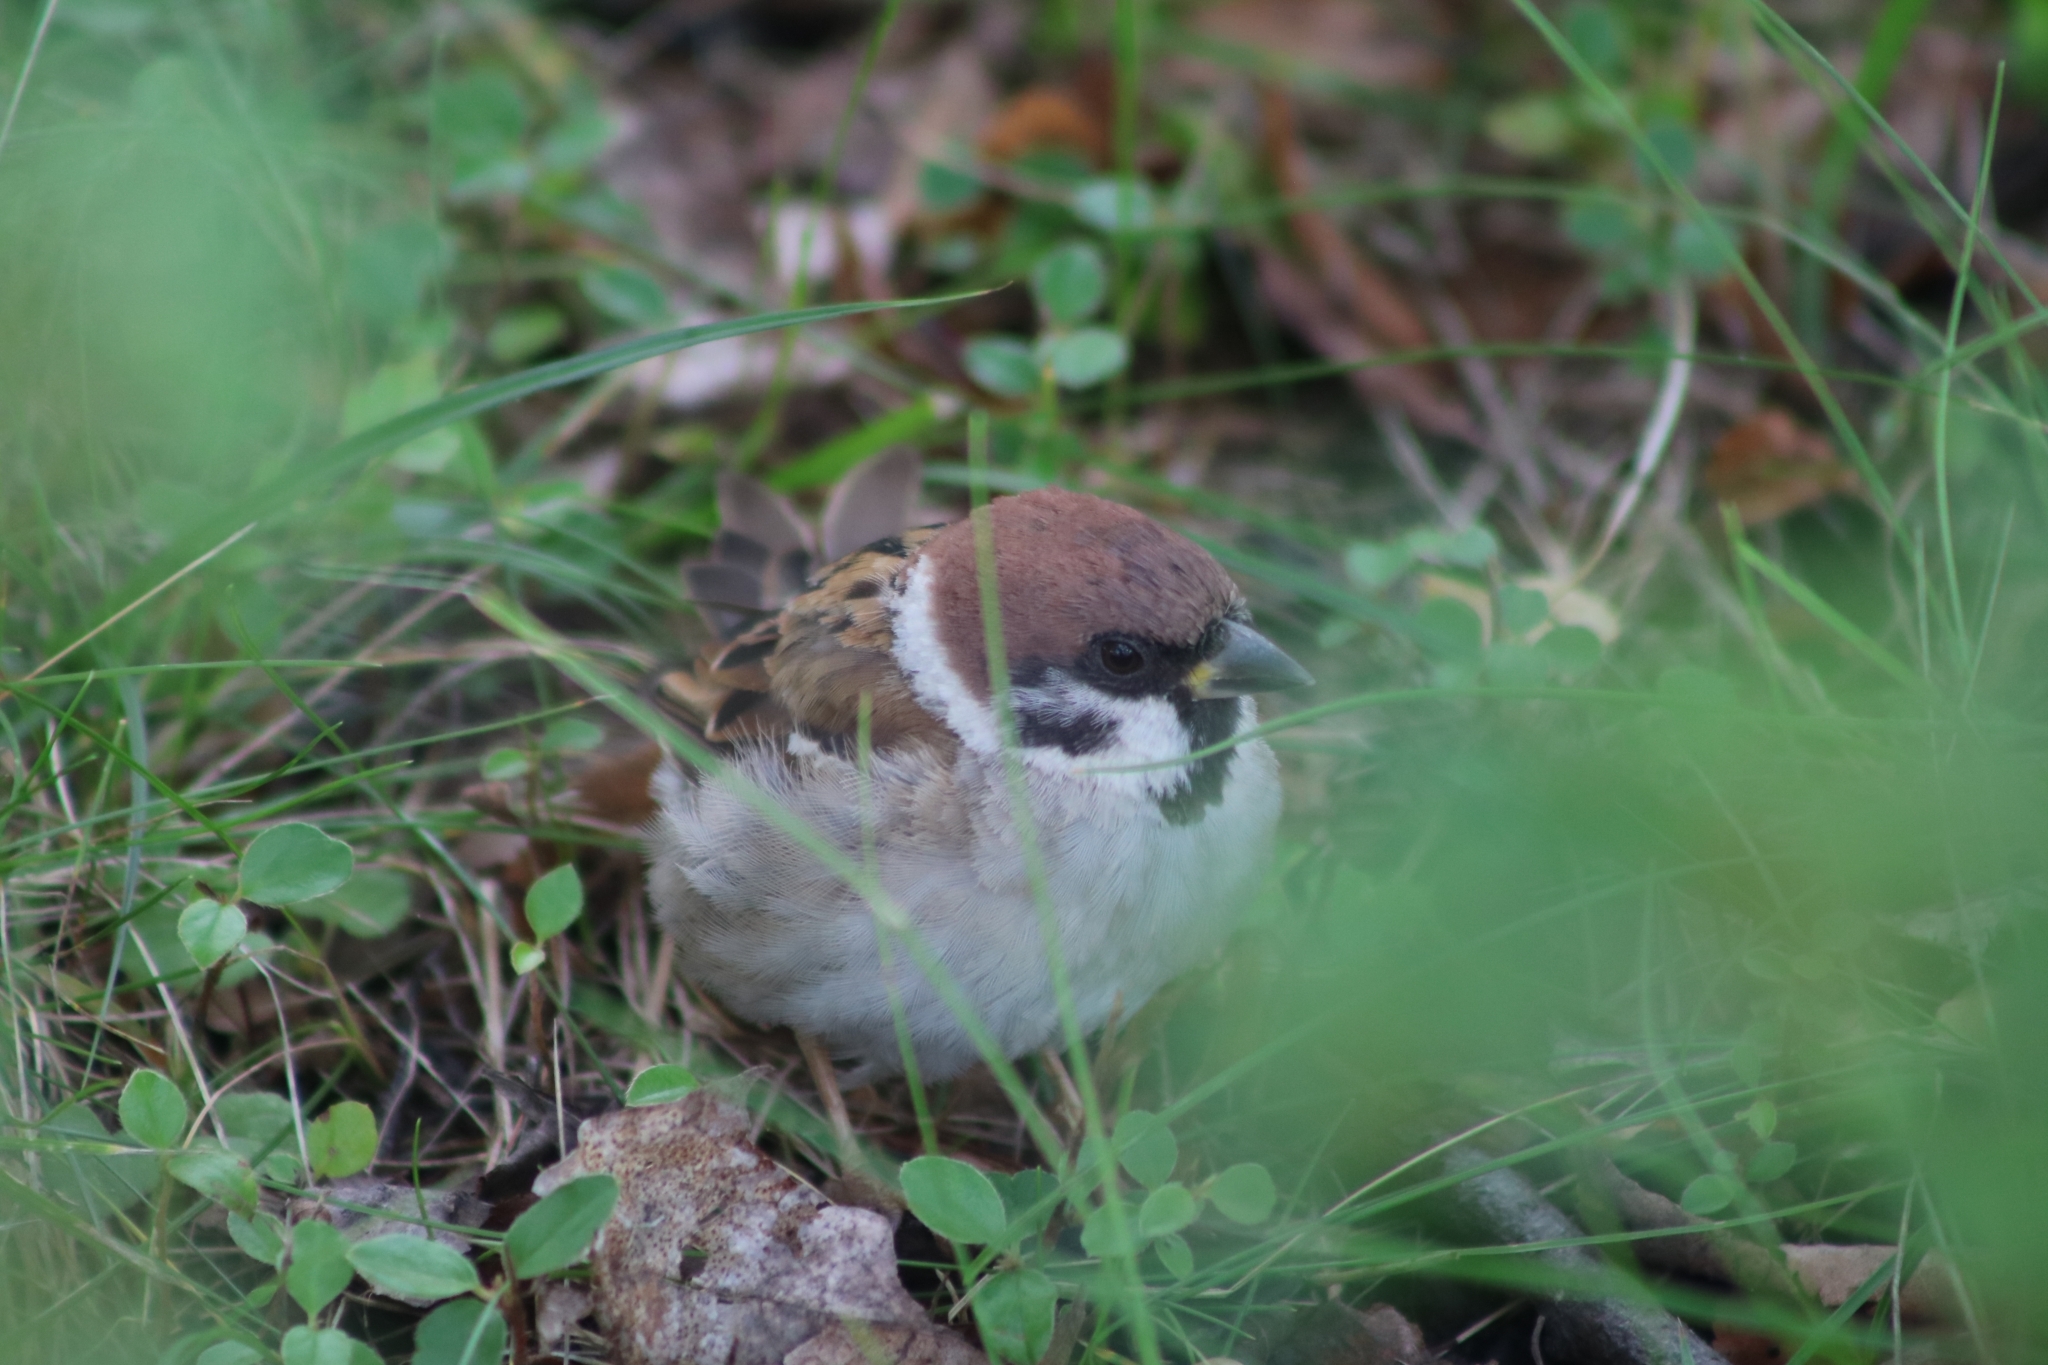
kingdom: Animalia
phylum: Chordata
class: Aves
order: Passeriformes
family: Passeridae
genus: Passer
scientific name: Passer montanus
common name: Eurasian tree sparrow
